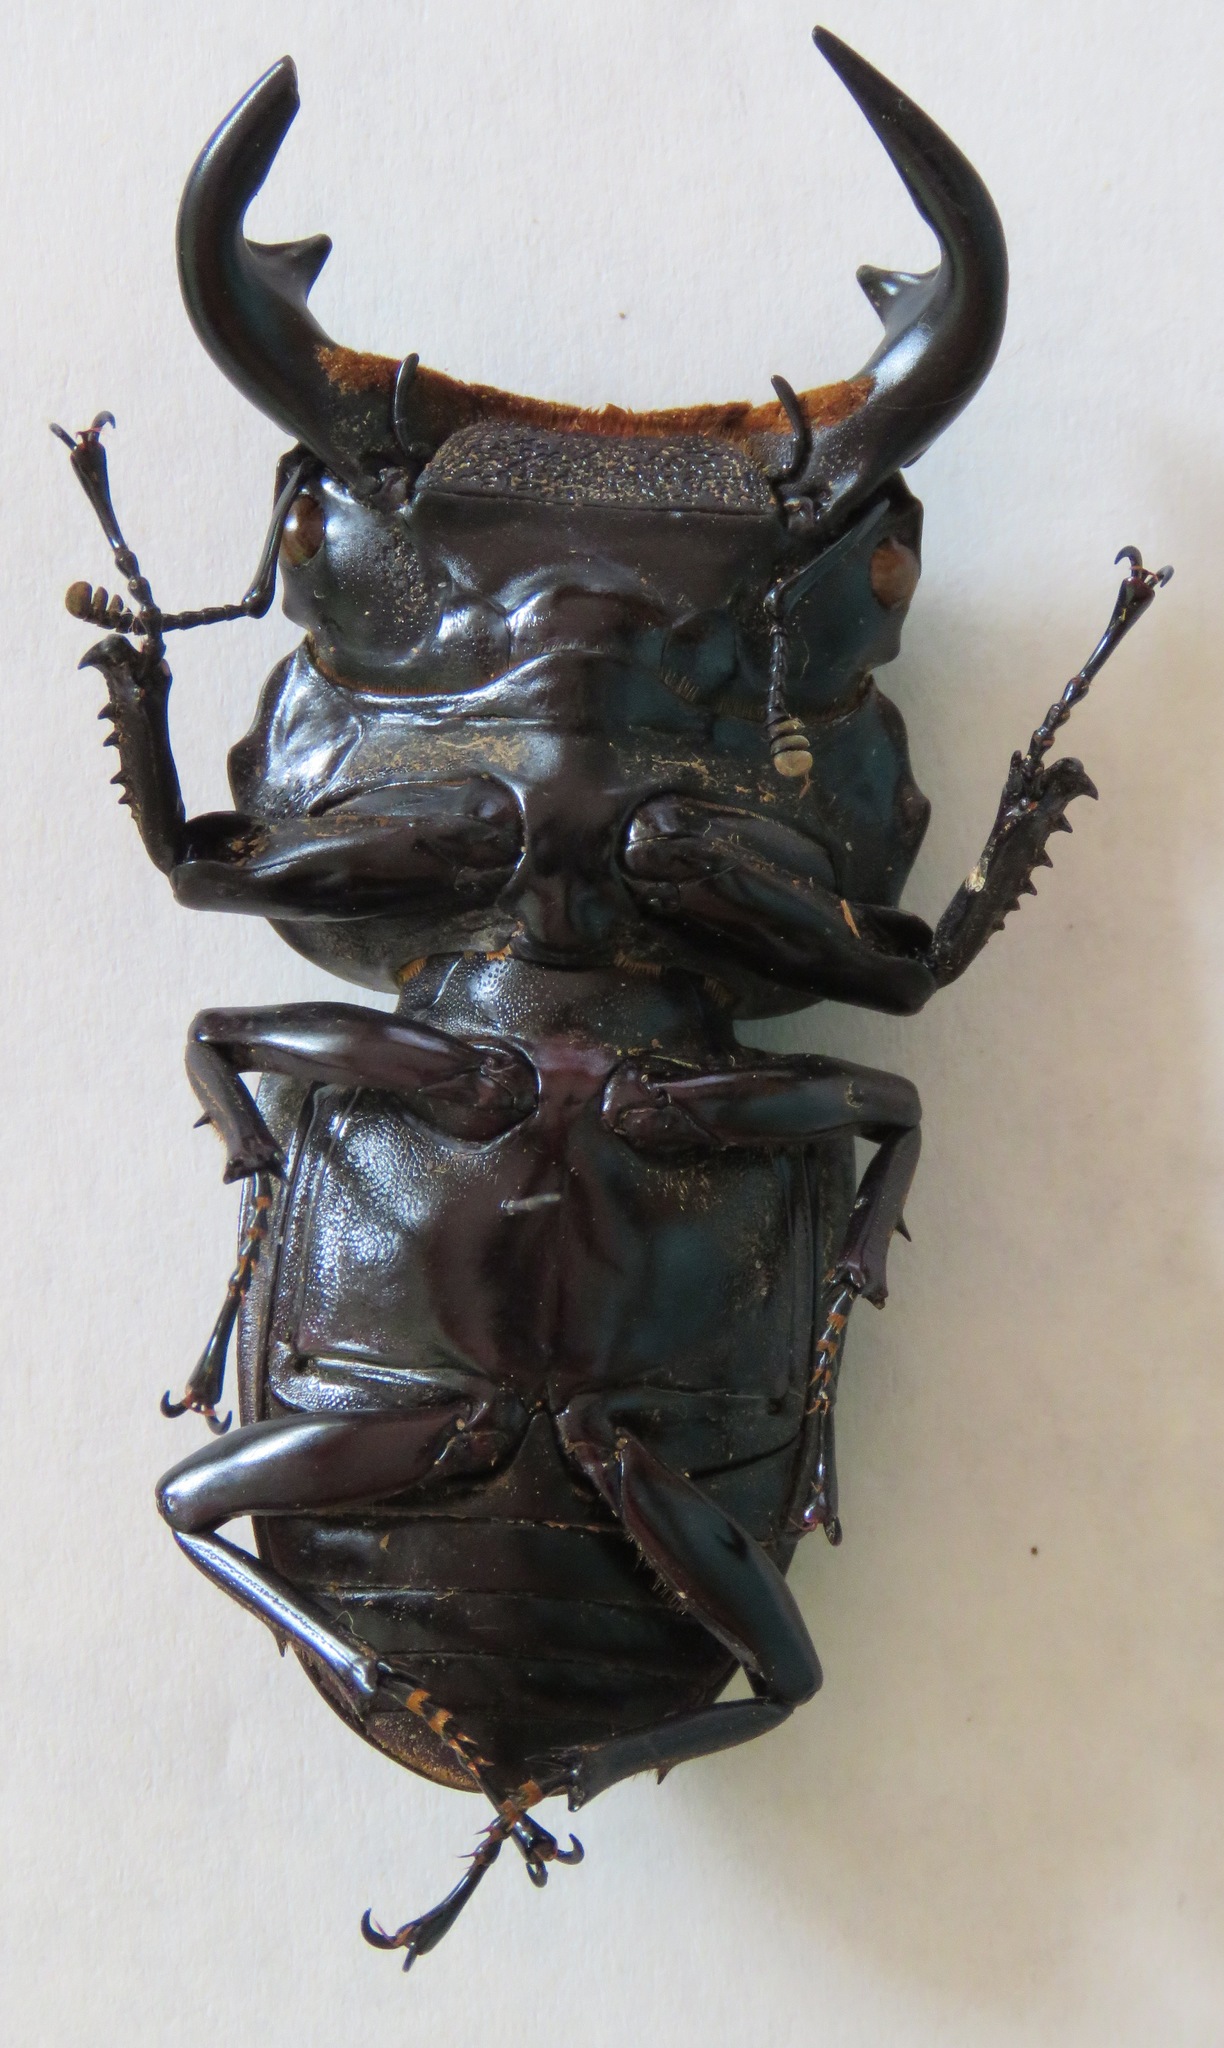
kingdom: Animalia
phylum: Arthropoda
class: Insecta
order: Coleoptera
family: Lucanidae
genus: Dorcus
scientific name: Dorcus antaeus
